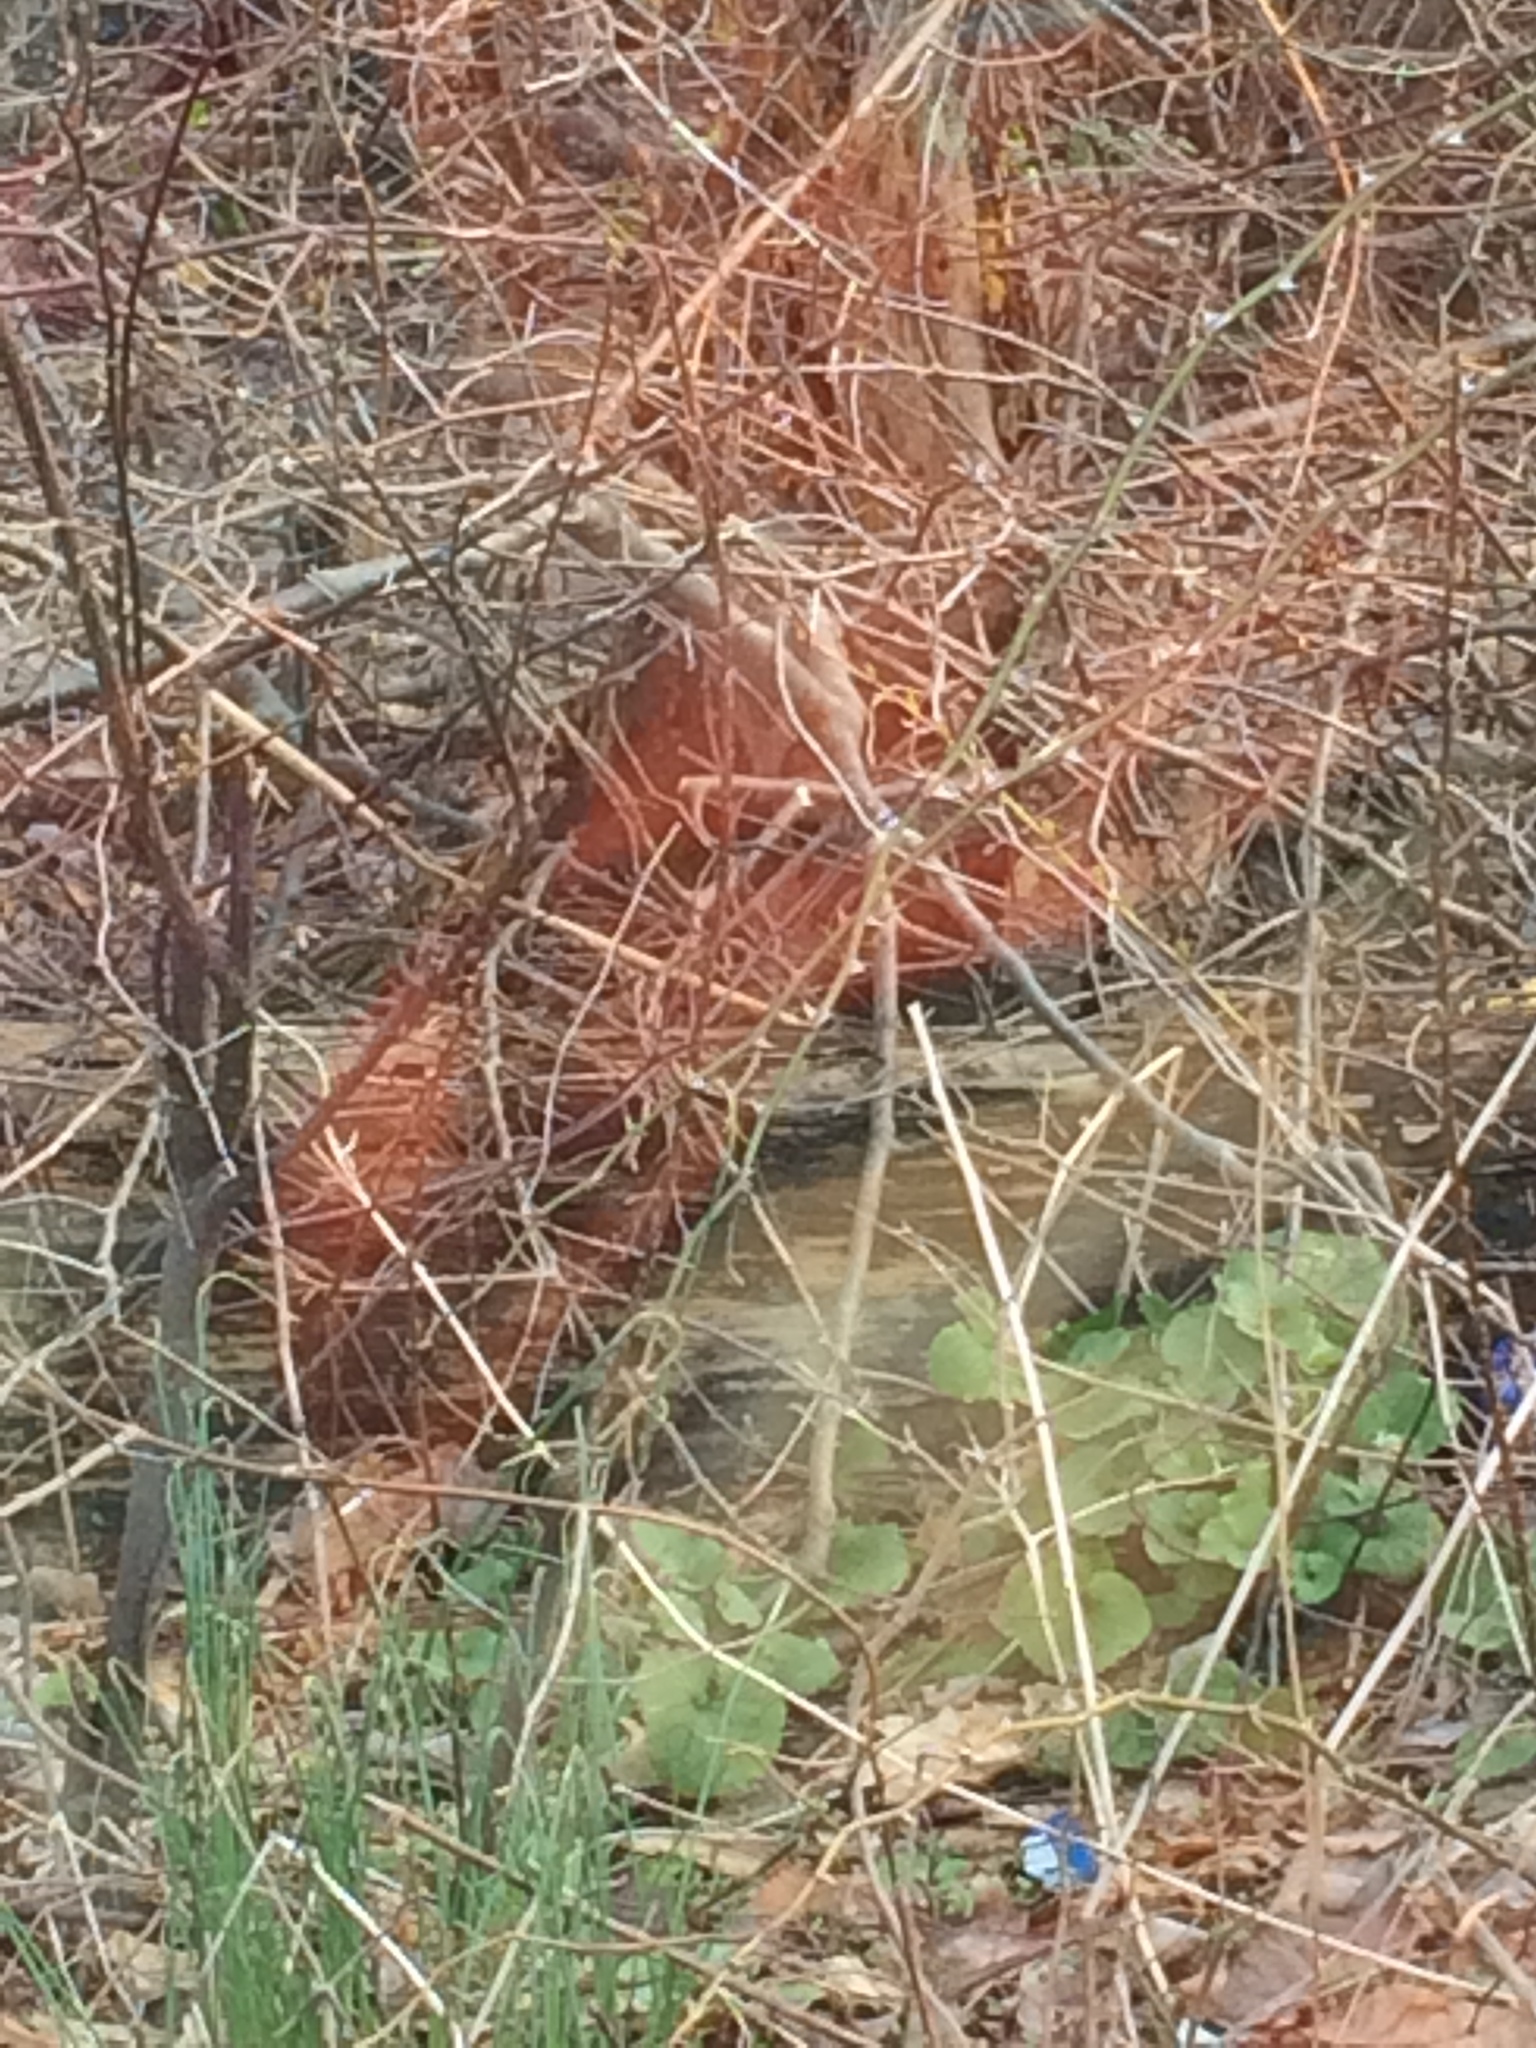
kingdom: Plantae
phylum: Tracheophyta
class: Magnoliopsida
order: Rosales
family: Rosaceae
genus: Rosa
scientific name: Rosa multiflora
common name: Multiflora rose
